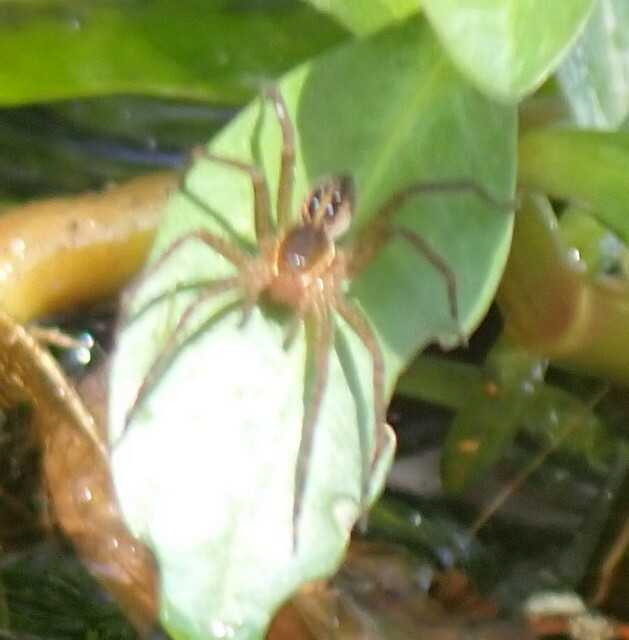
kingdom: Animalia
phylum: Arthropoda
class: Arachnida
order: Araneae
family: Pisauridae
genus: Dolomedes
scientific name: Dolomedes triton
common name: Six-spotted fishing spider
